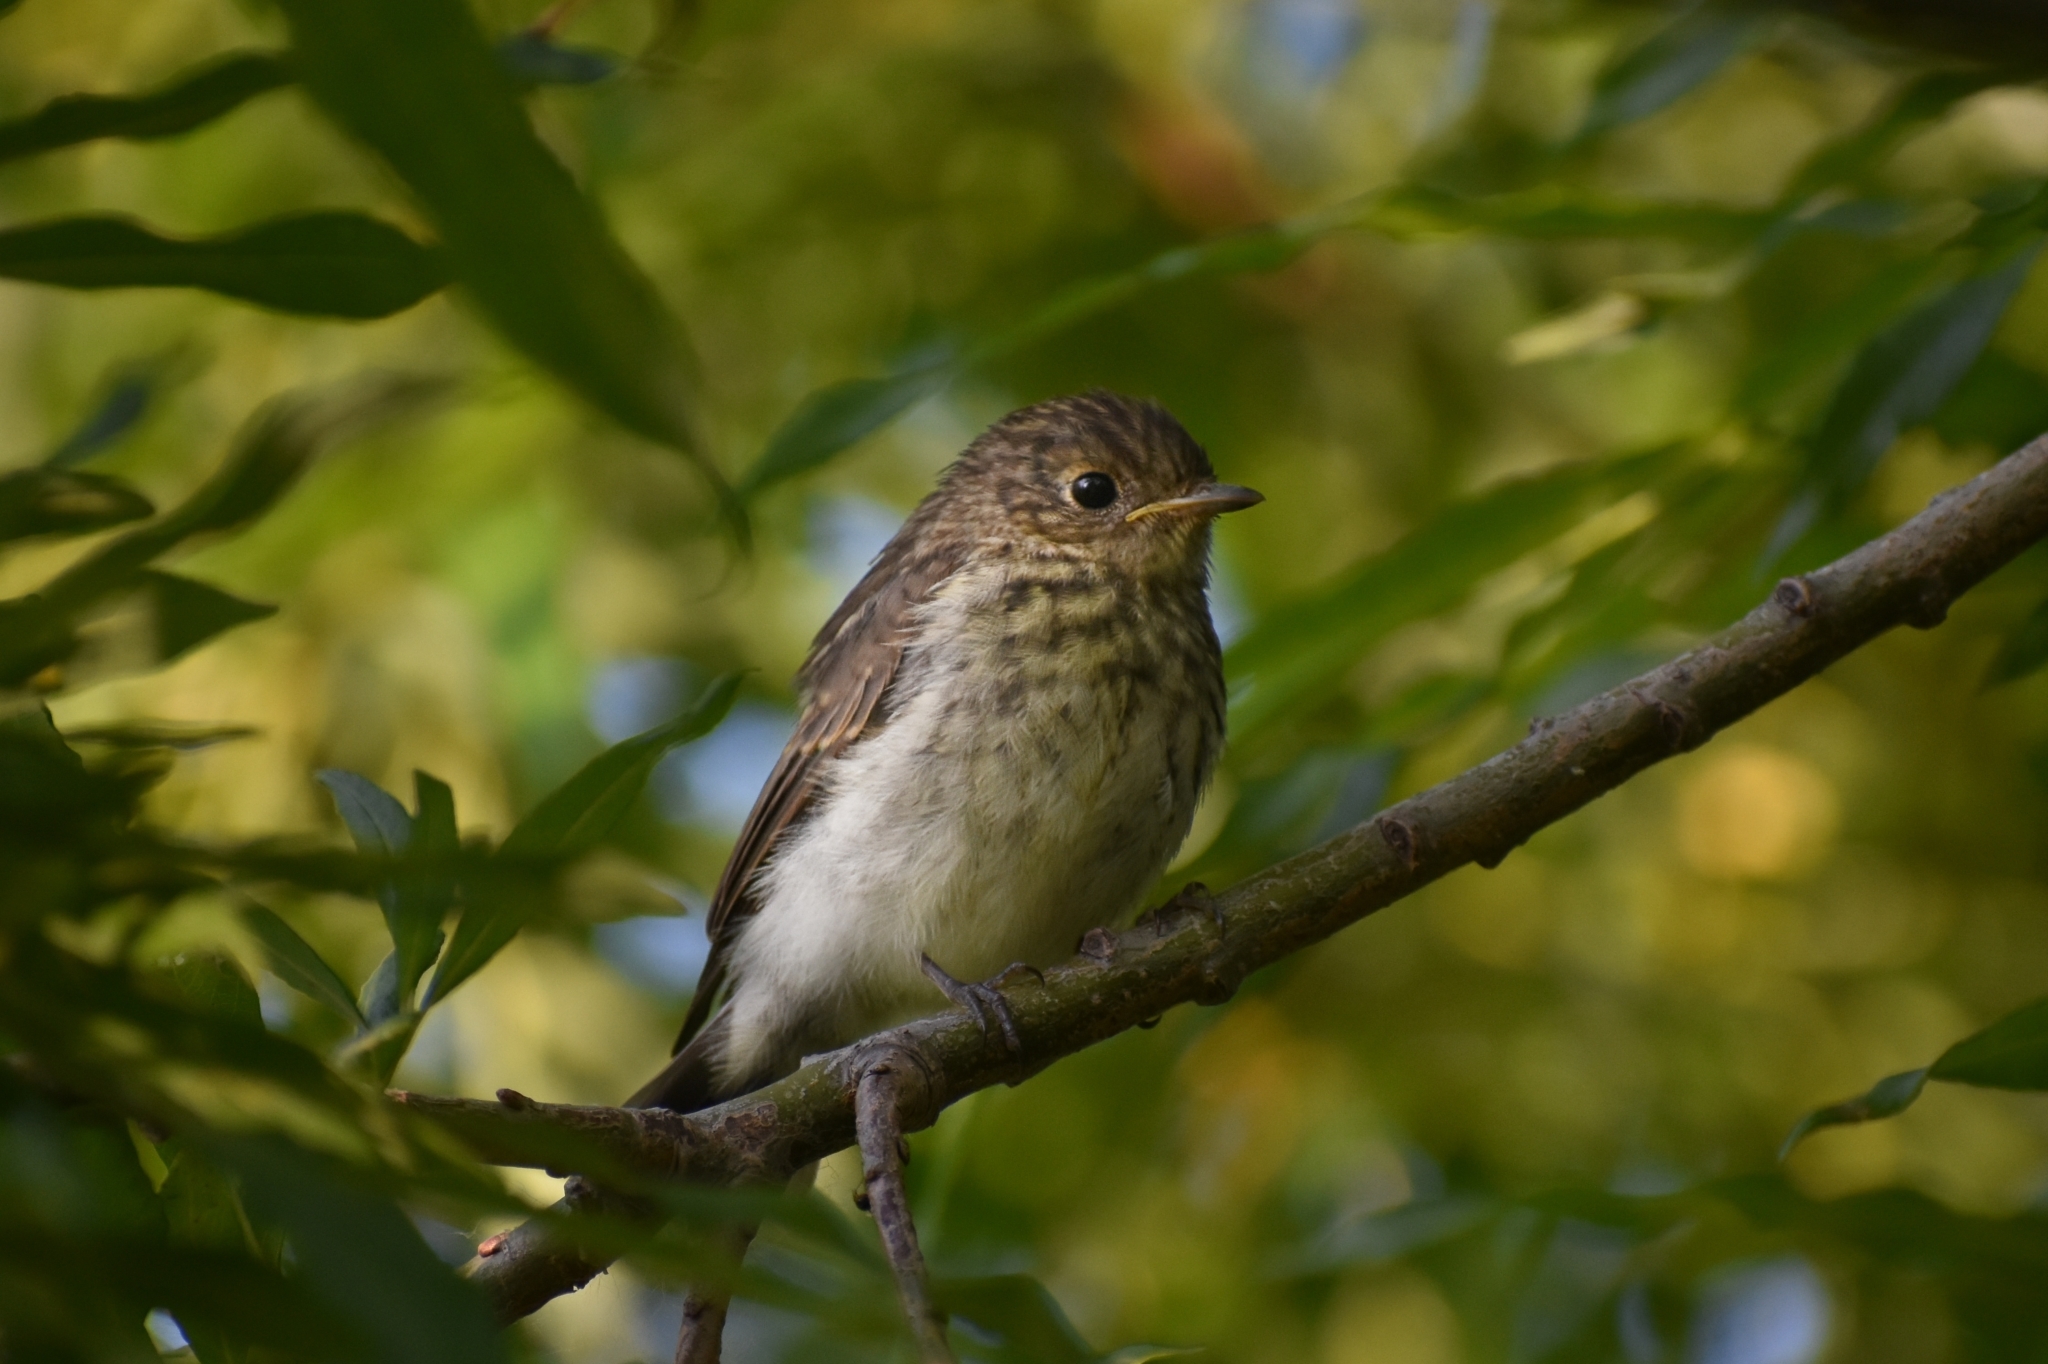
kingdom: Animalia
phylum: Chordata
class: Aves
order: Passeriformes
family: Muscicapidae
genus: Muscicapa
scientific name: Muscicapa sibirica
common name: Dark-sided flycatcher
